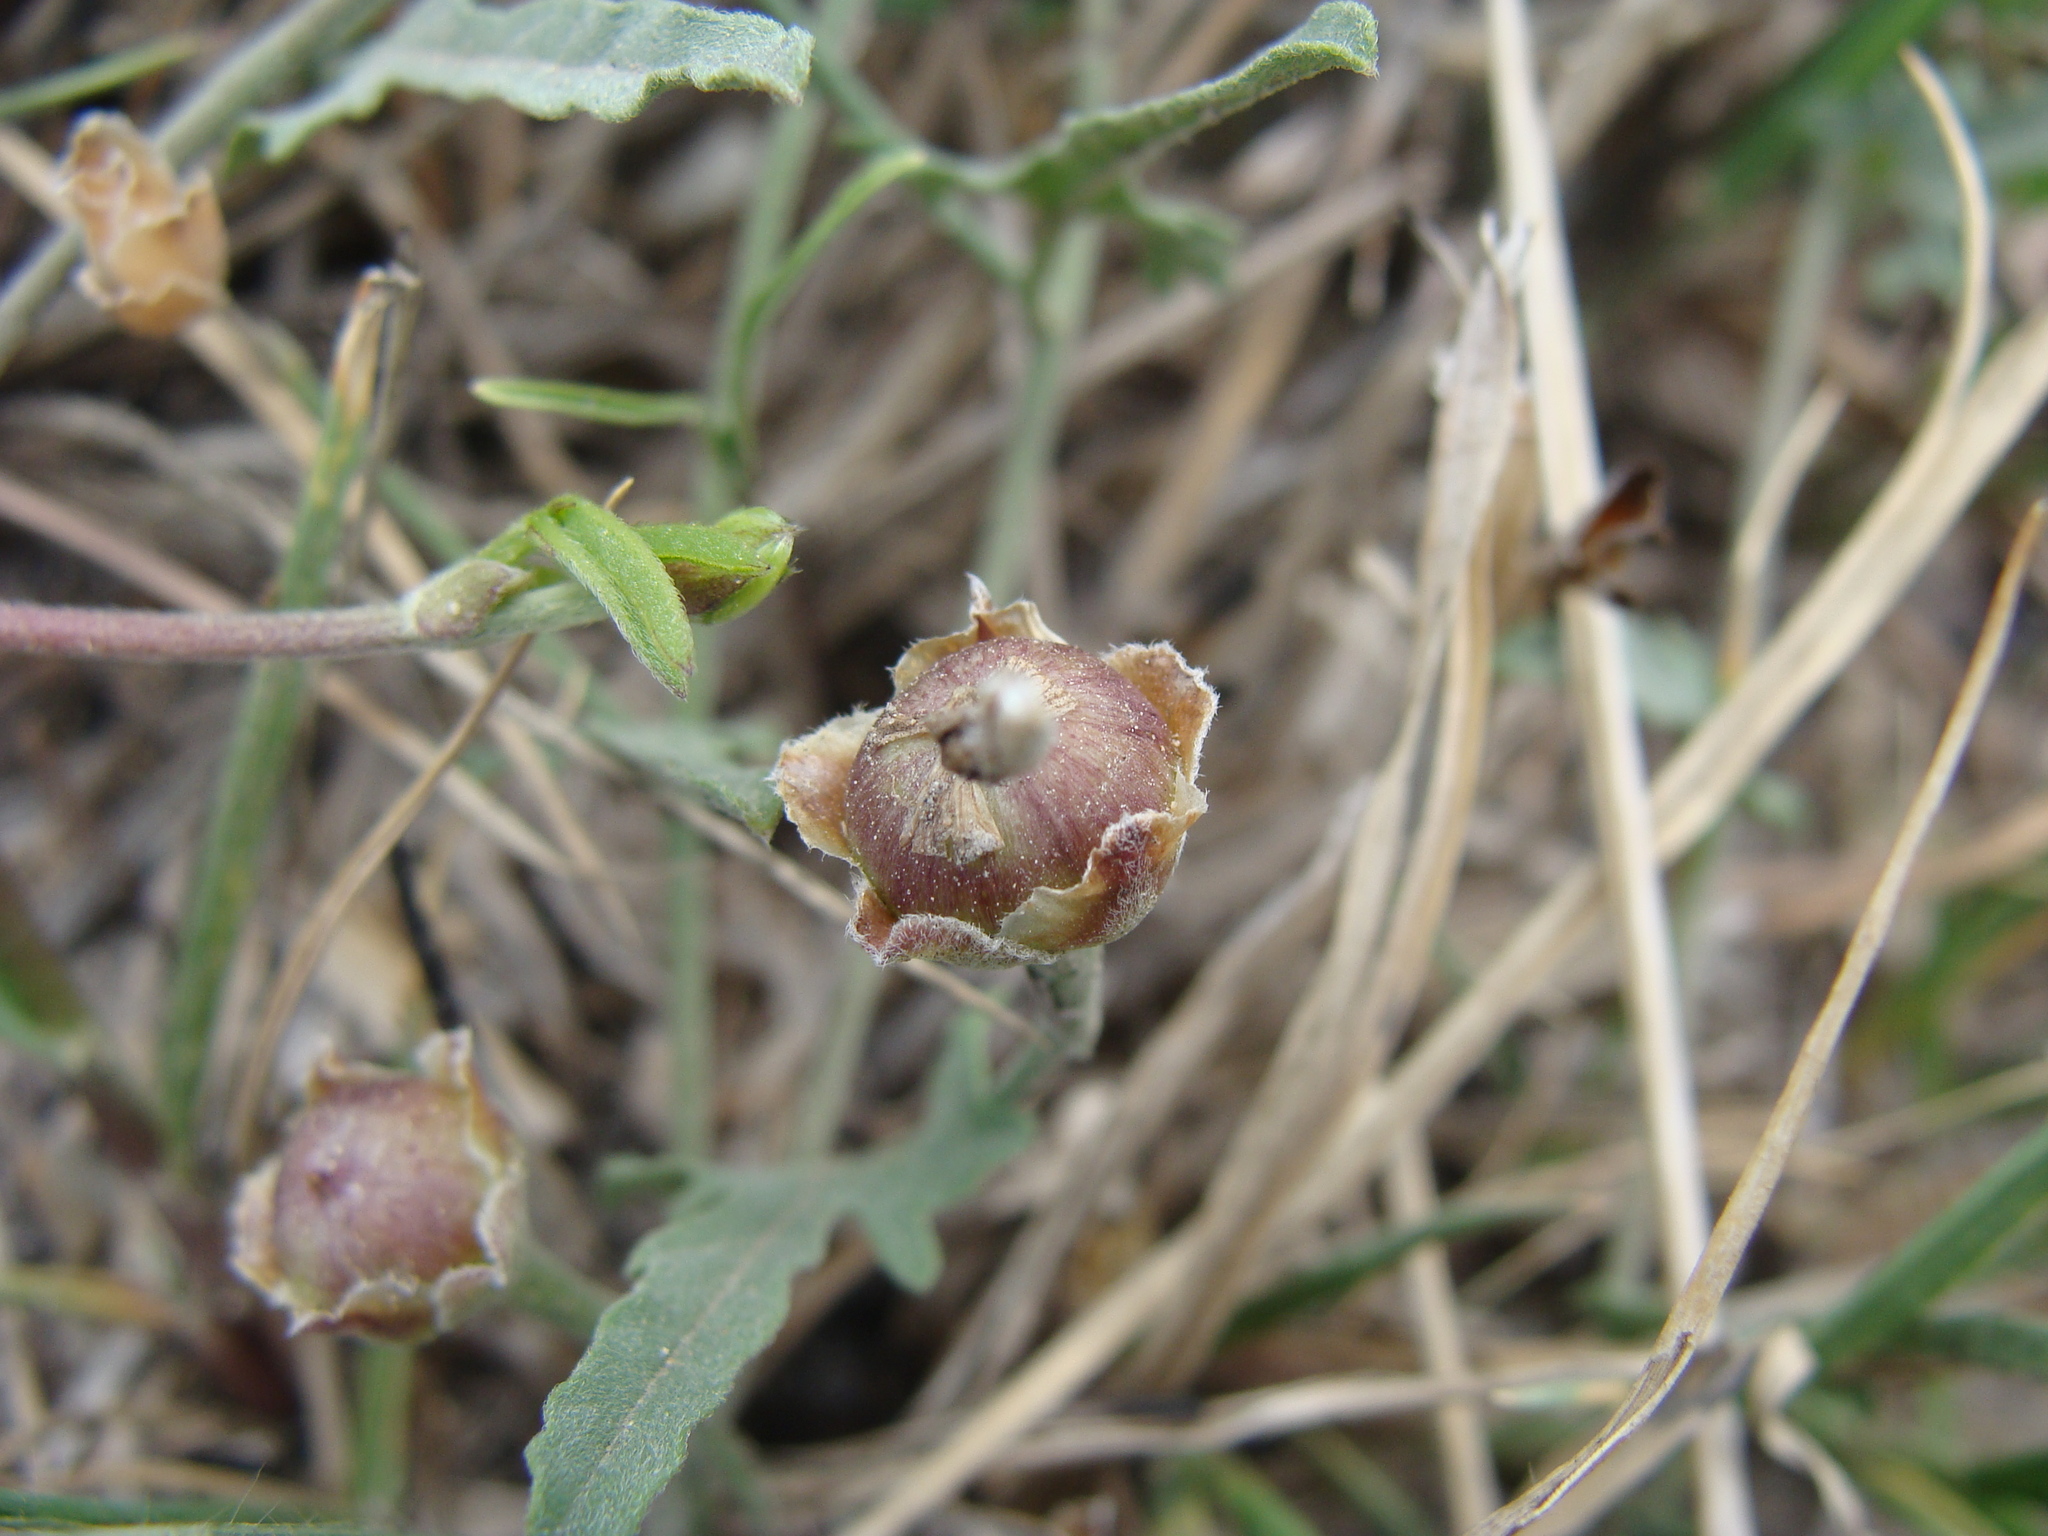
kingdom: Plantae
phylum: Tracheophyta
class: Magnoliopsida
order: Solanales
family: Convolvulaceae
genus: Convolvulus
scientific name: Convolvulus equitans
